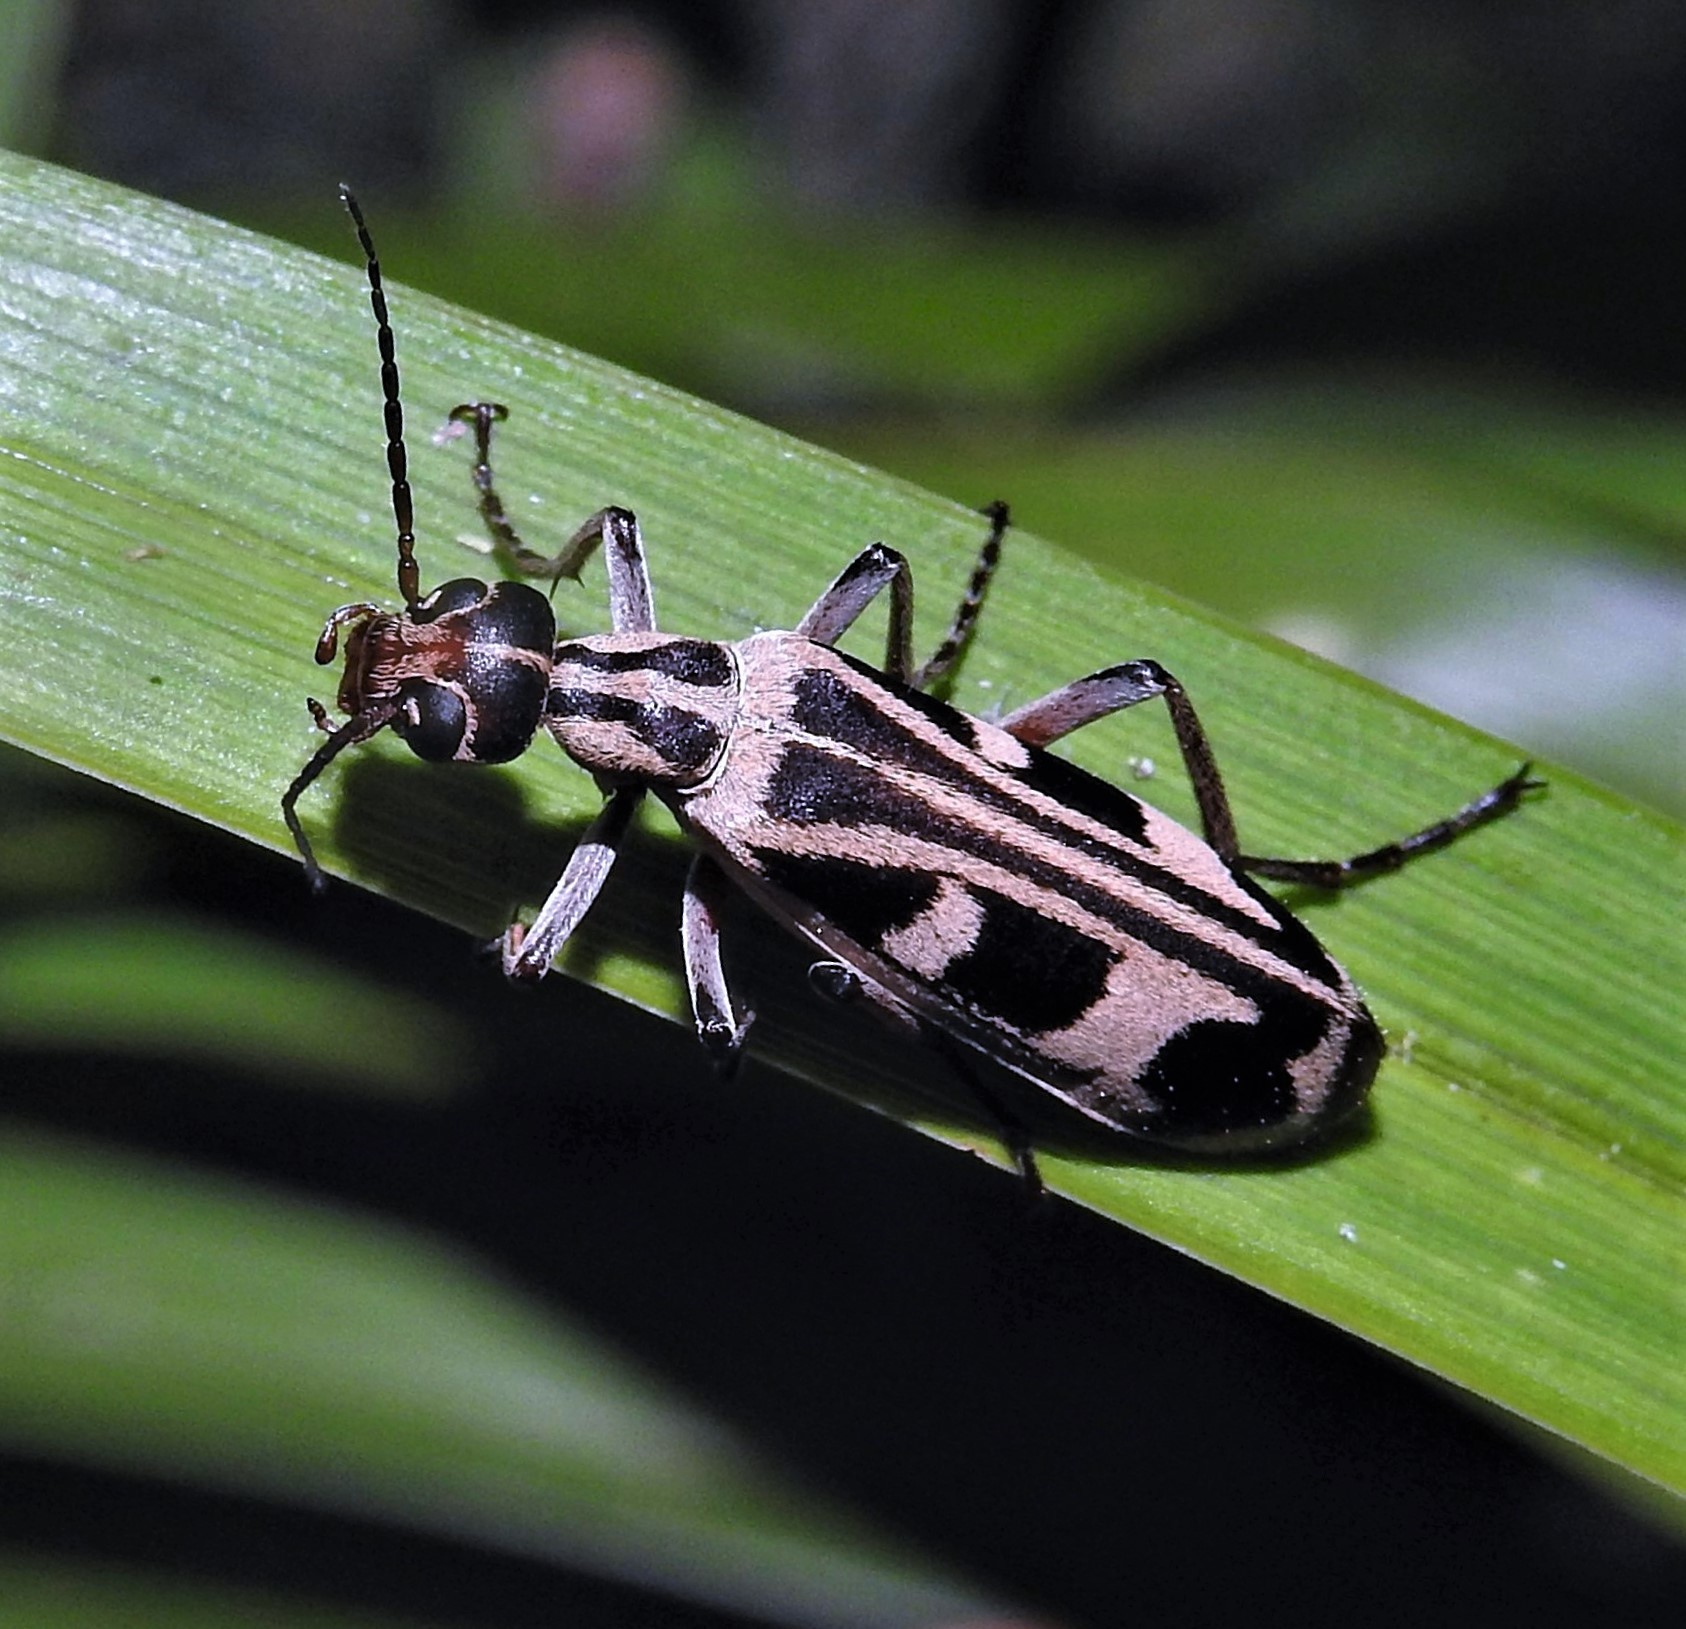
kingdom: Animalia
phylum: Arthropoda
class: Insecta
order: Coleoptera
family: Meloidae
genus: Epicauta
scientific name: Epicauta leopardina
